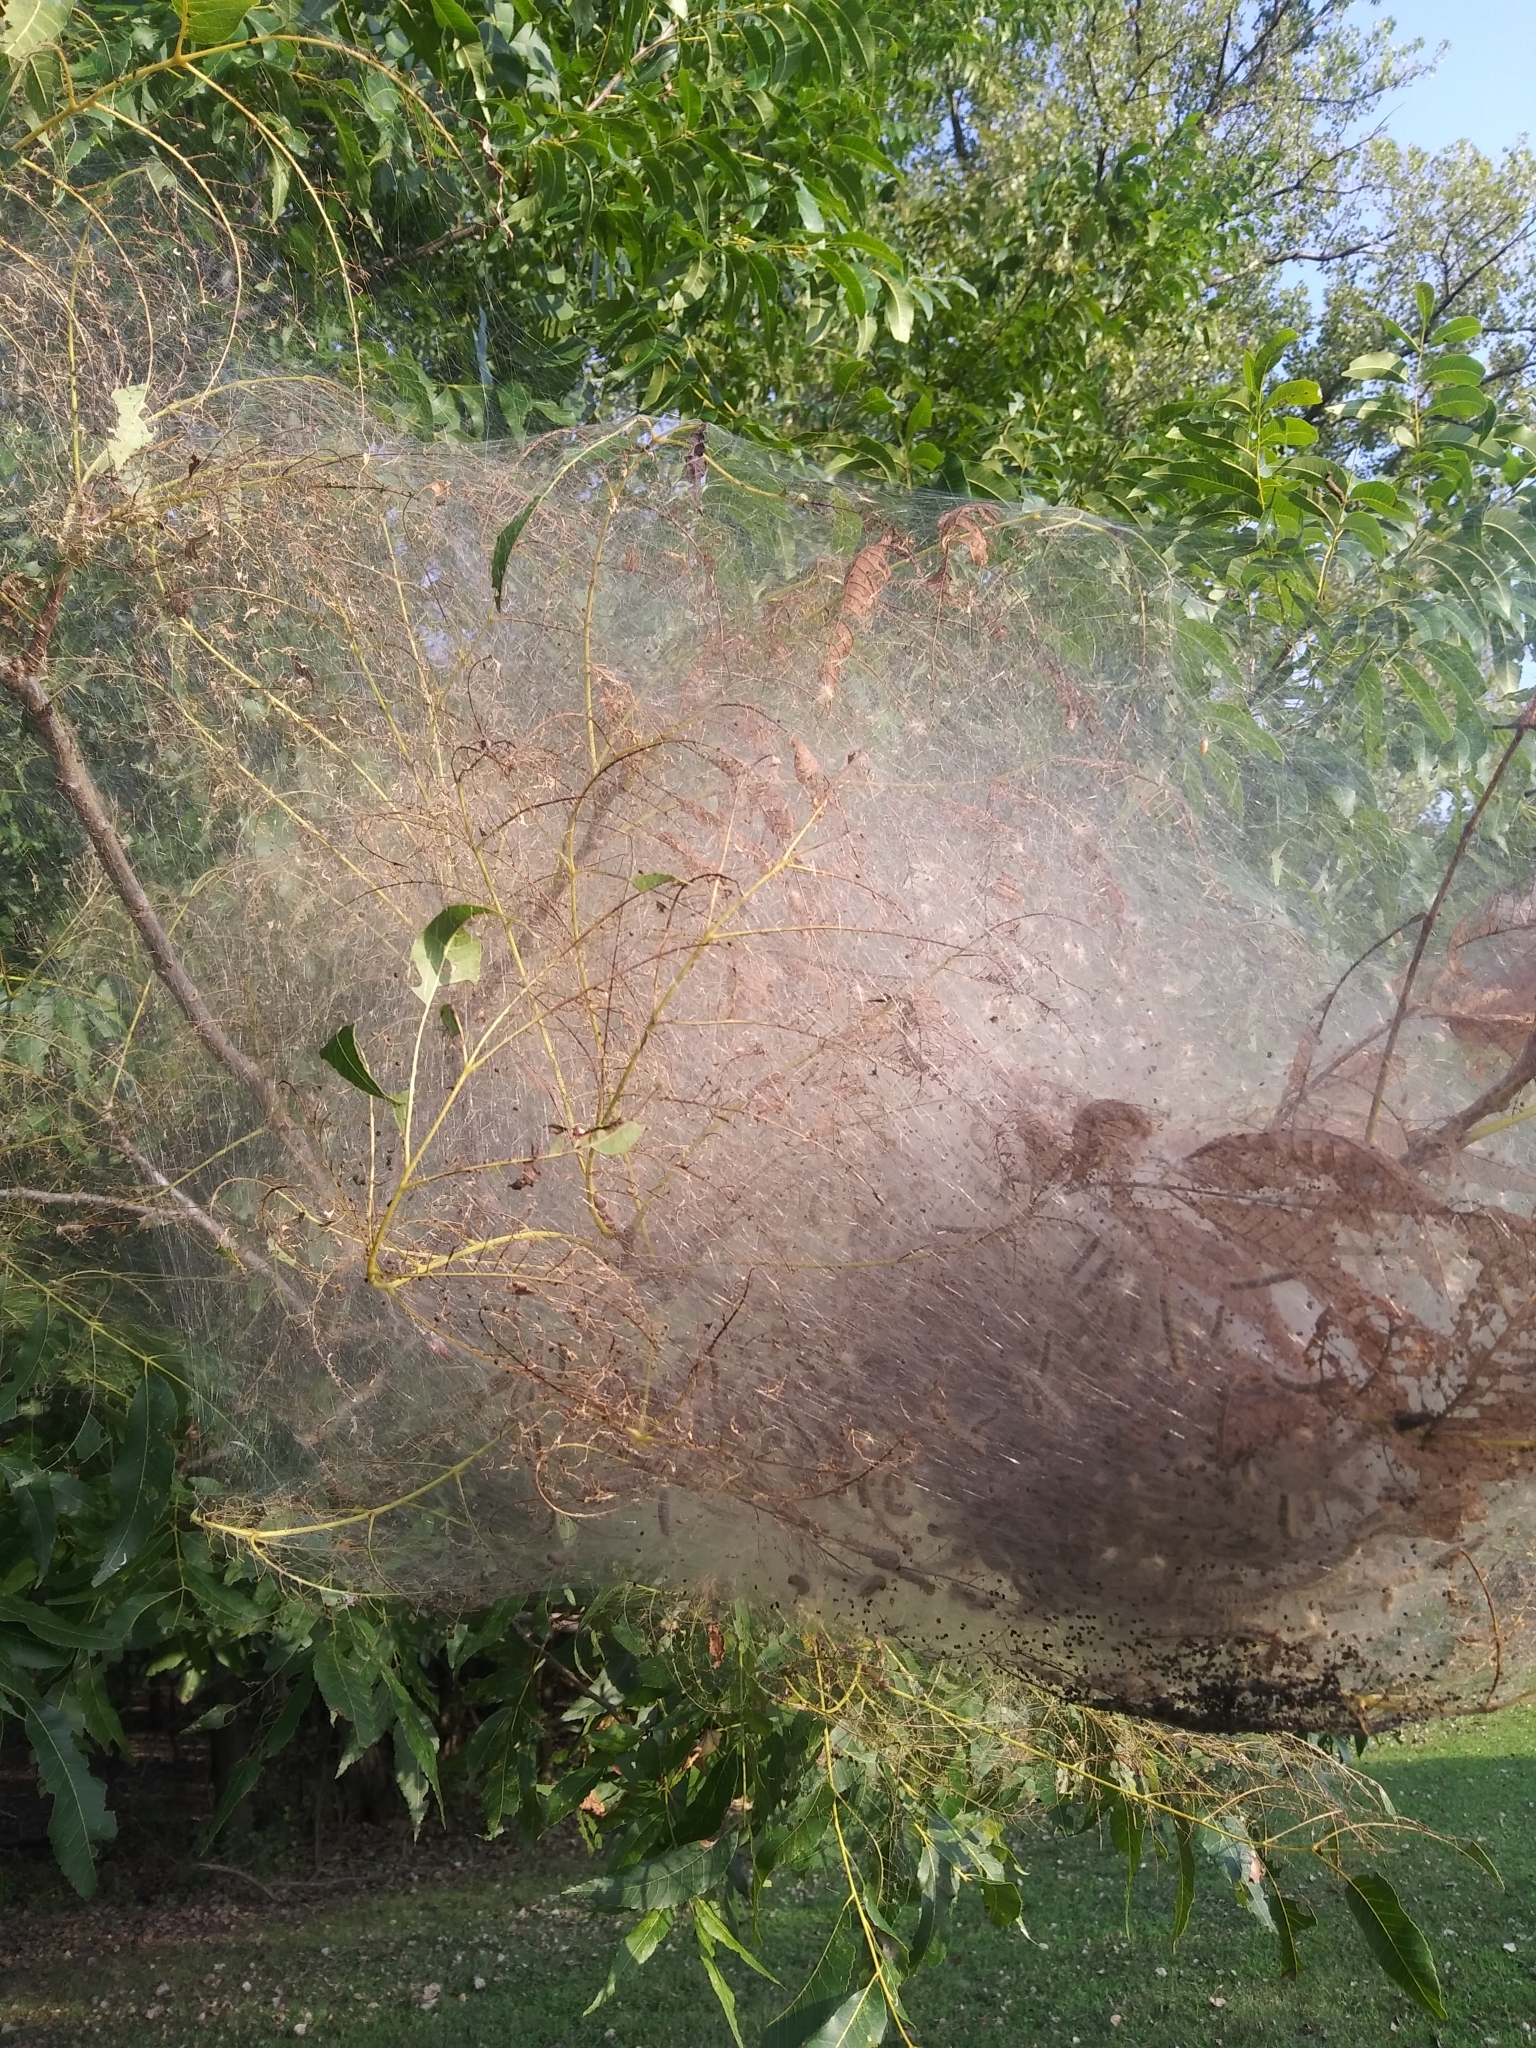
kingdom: Animalia
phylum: Arthropoda
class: Insecta
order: Lepidoptera
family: Erebidae
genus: Hyphantria
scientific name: Hyphantria cunea
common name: American white moth
